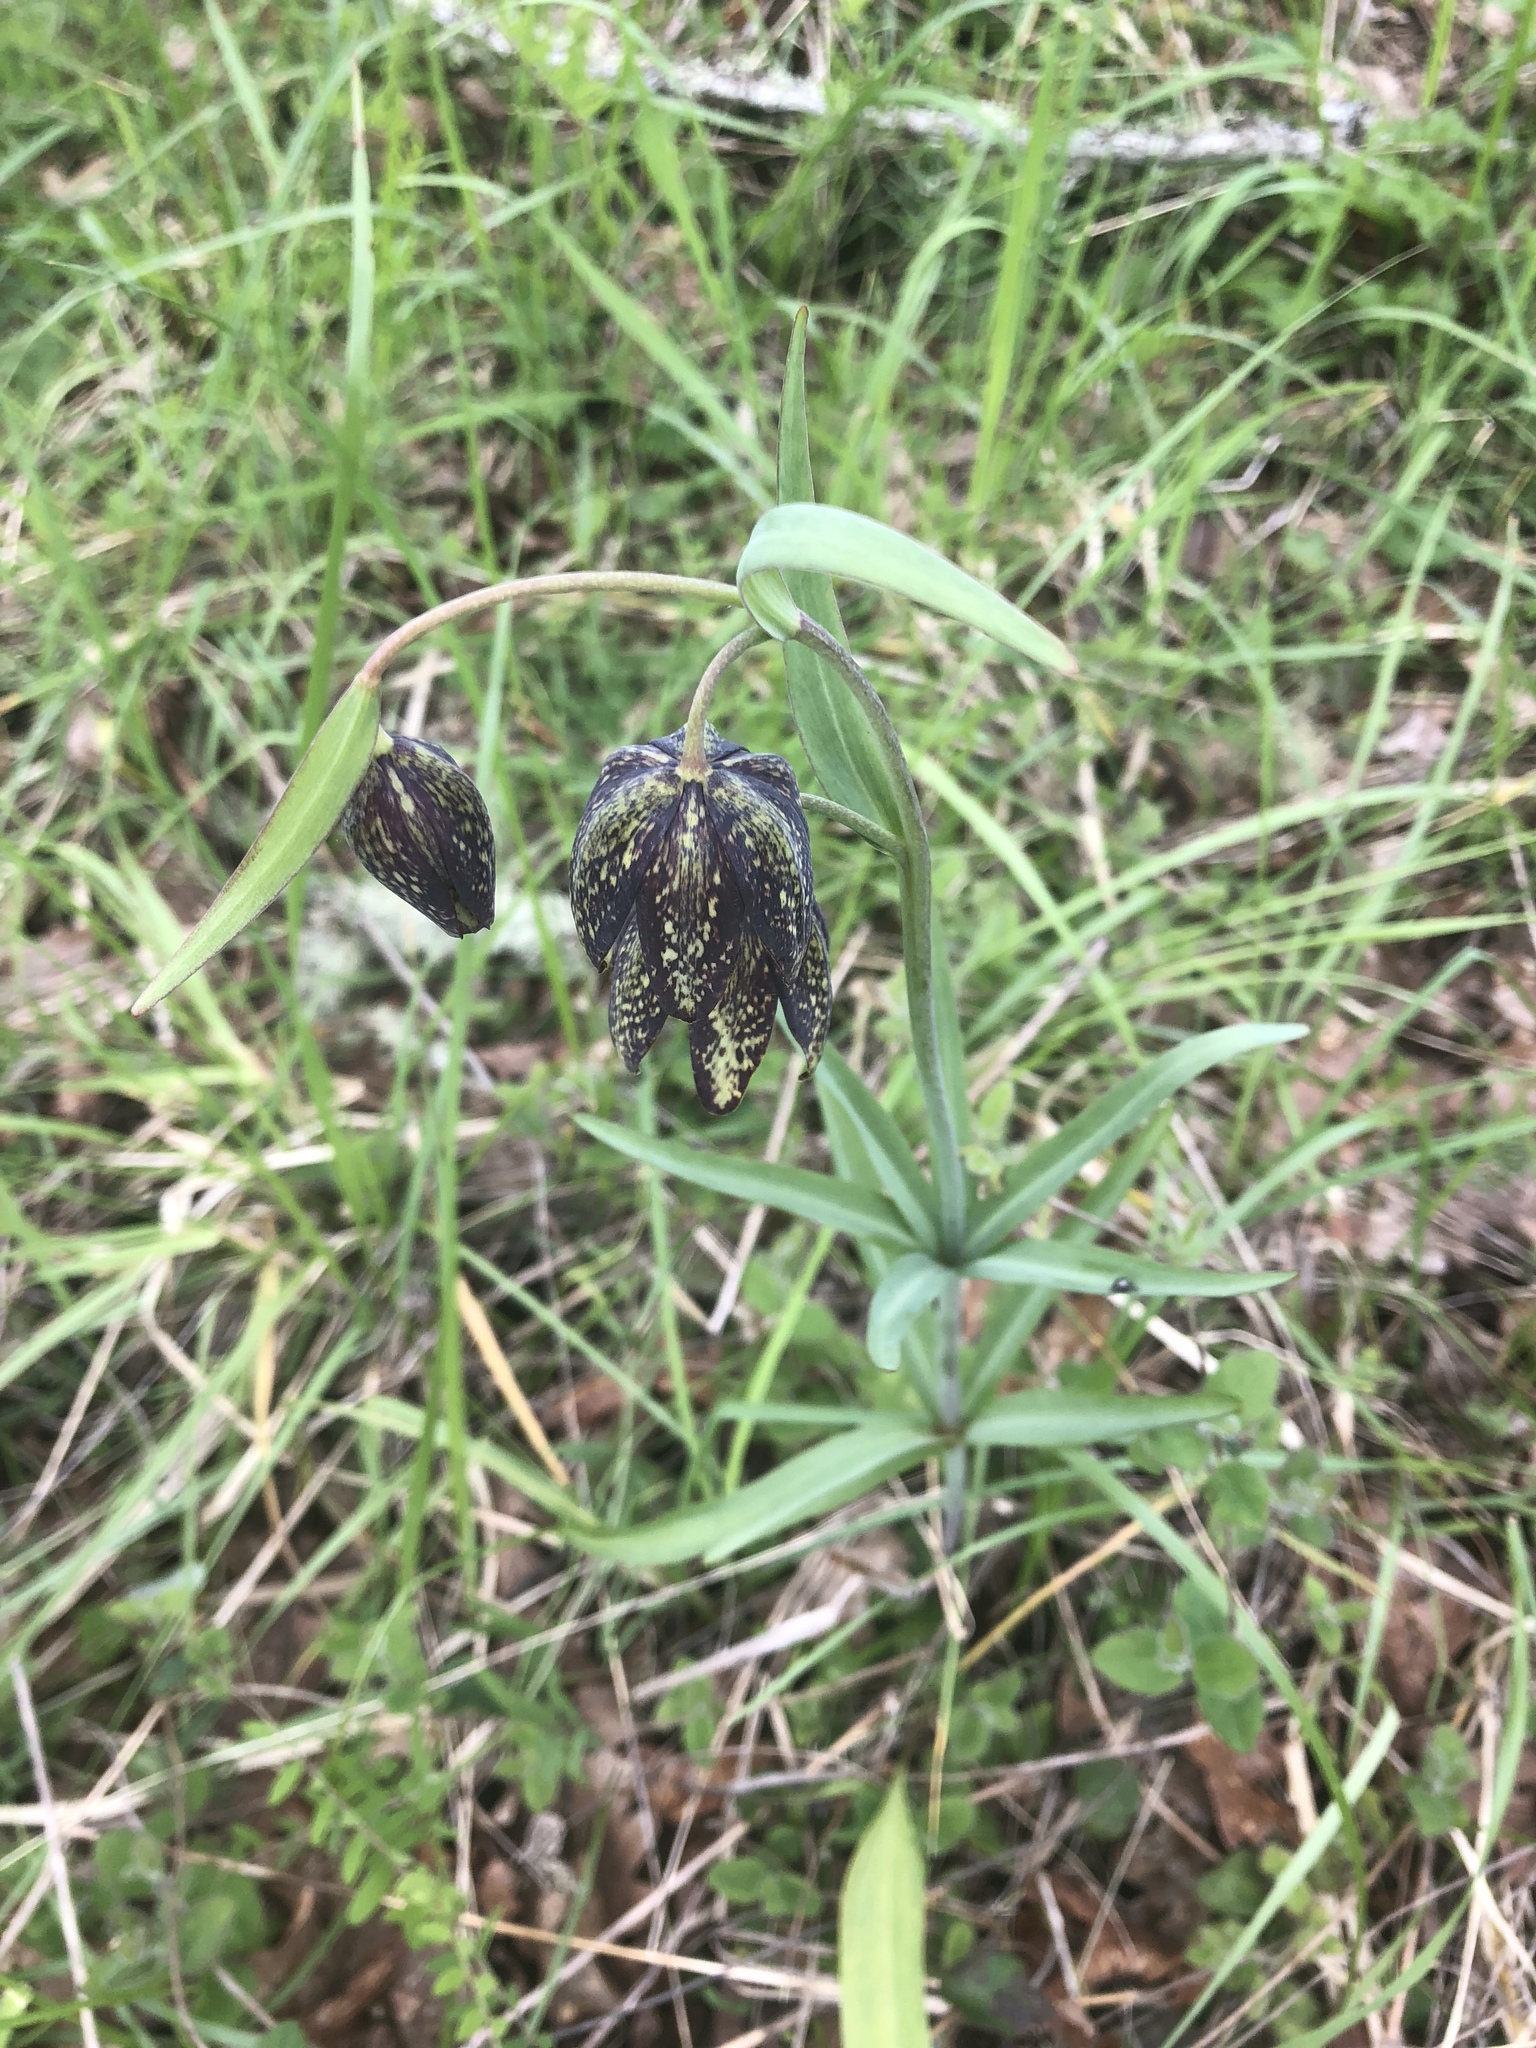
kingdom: Plantae
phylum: Tracheophyta
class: Liliopsida
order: Liliales
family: Liliaceae
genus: Fritillaria
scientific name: Fritillaria affinis
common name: Ojai fritillary
